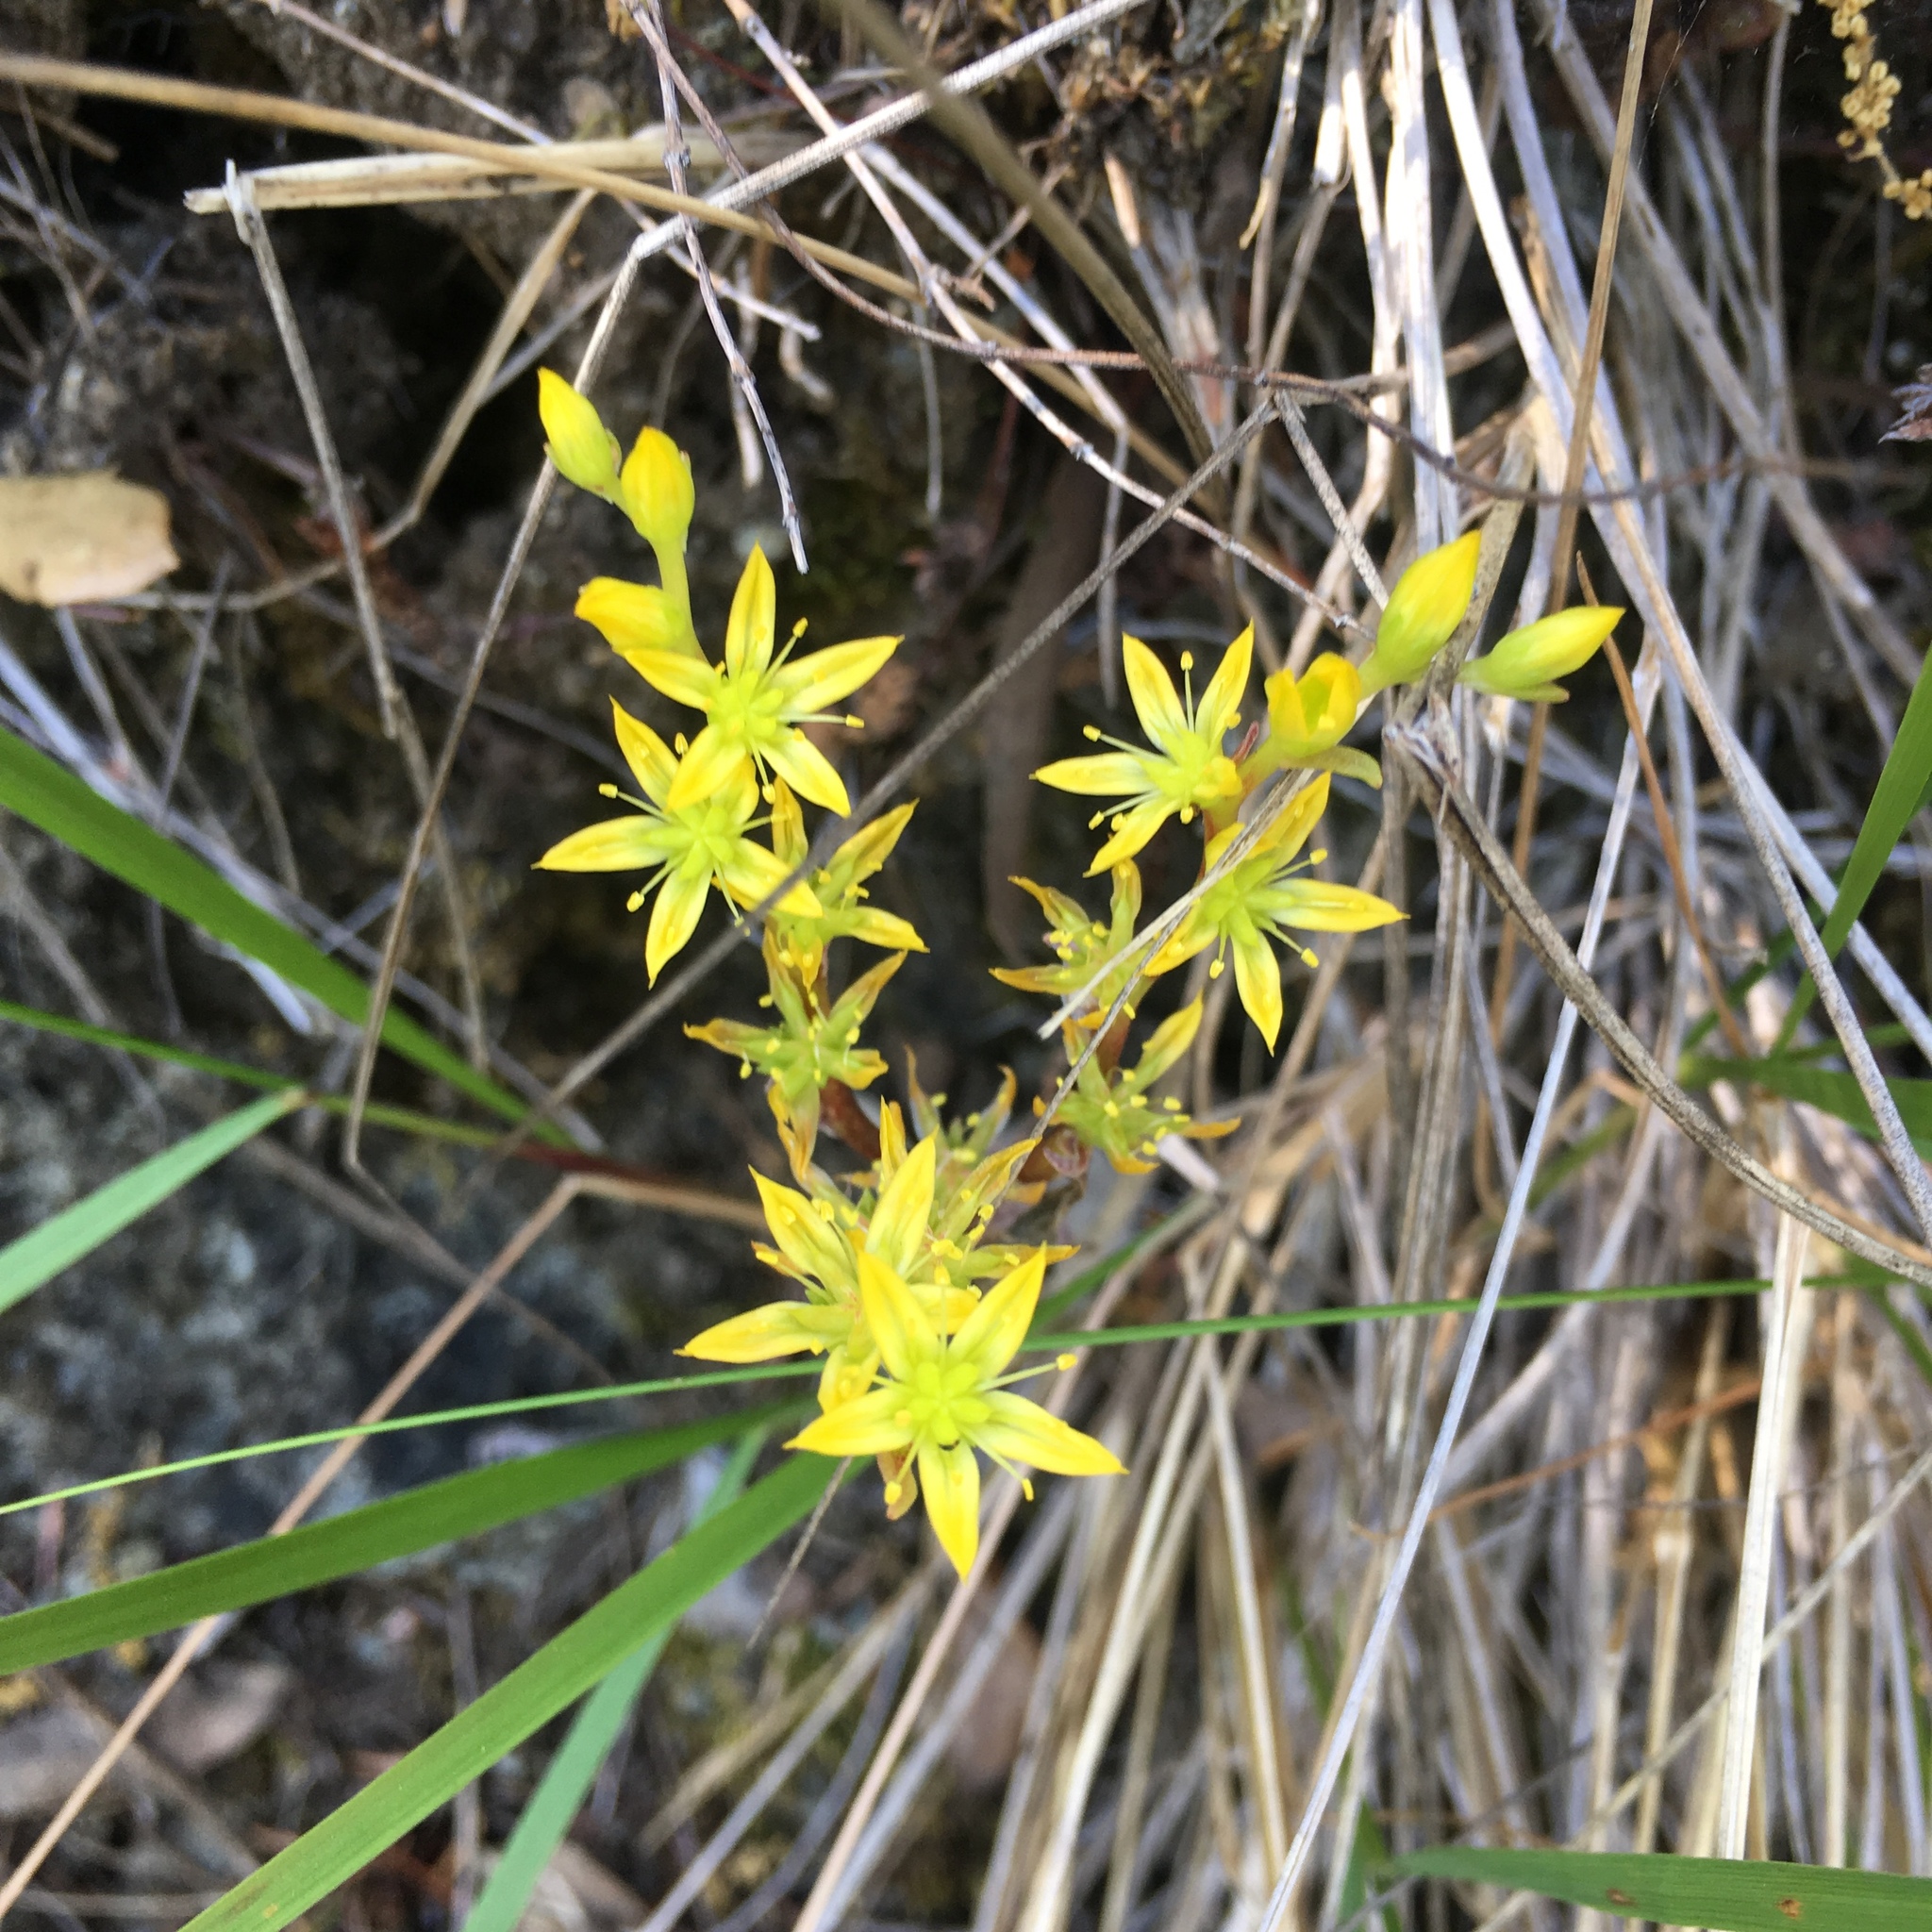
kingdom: Plantae
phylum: Tracheophyta
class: Magnoliopsida
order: Saxifragales
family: Crassulaceae
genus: Sedum
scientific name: Sedum radiatum
